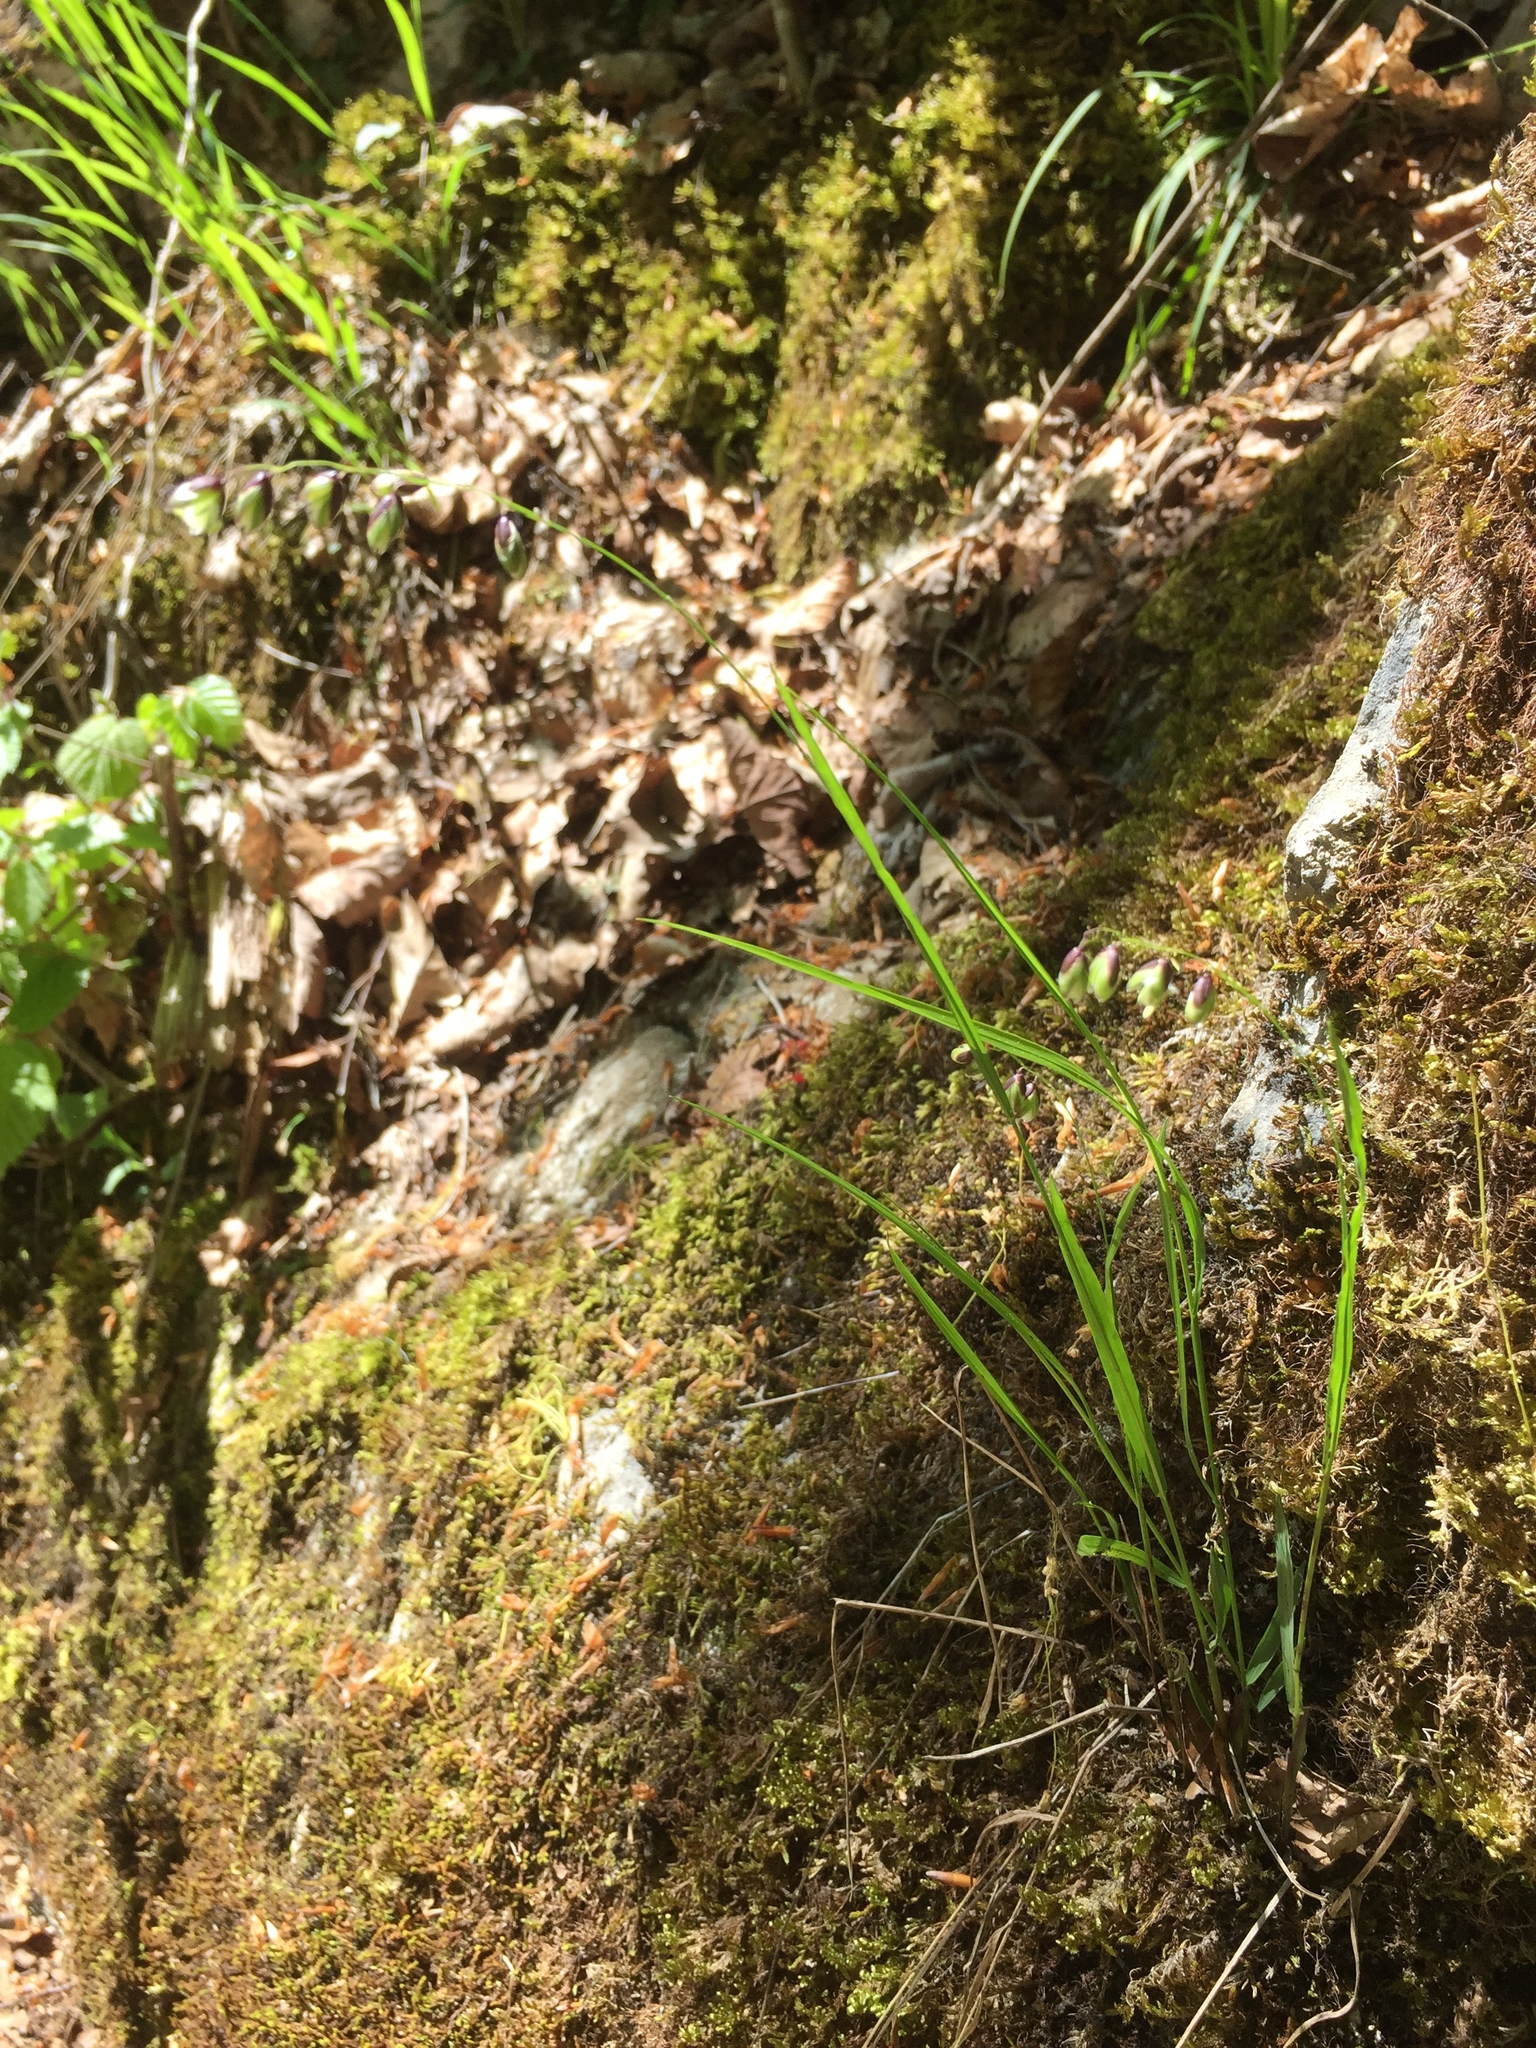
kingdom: Plantae
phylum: Tracheophyta
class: Liliopsida
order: Poales
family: Poaceae
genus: Melica
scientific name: Melica nutans
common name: Mountain melick
